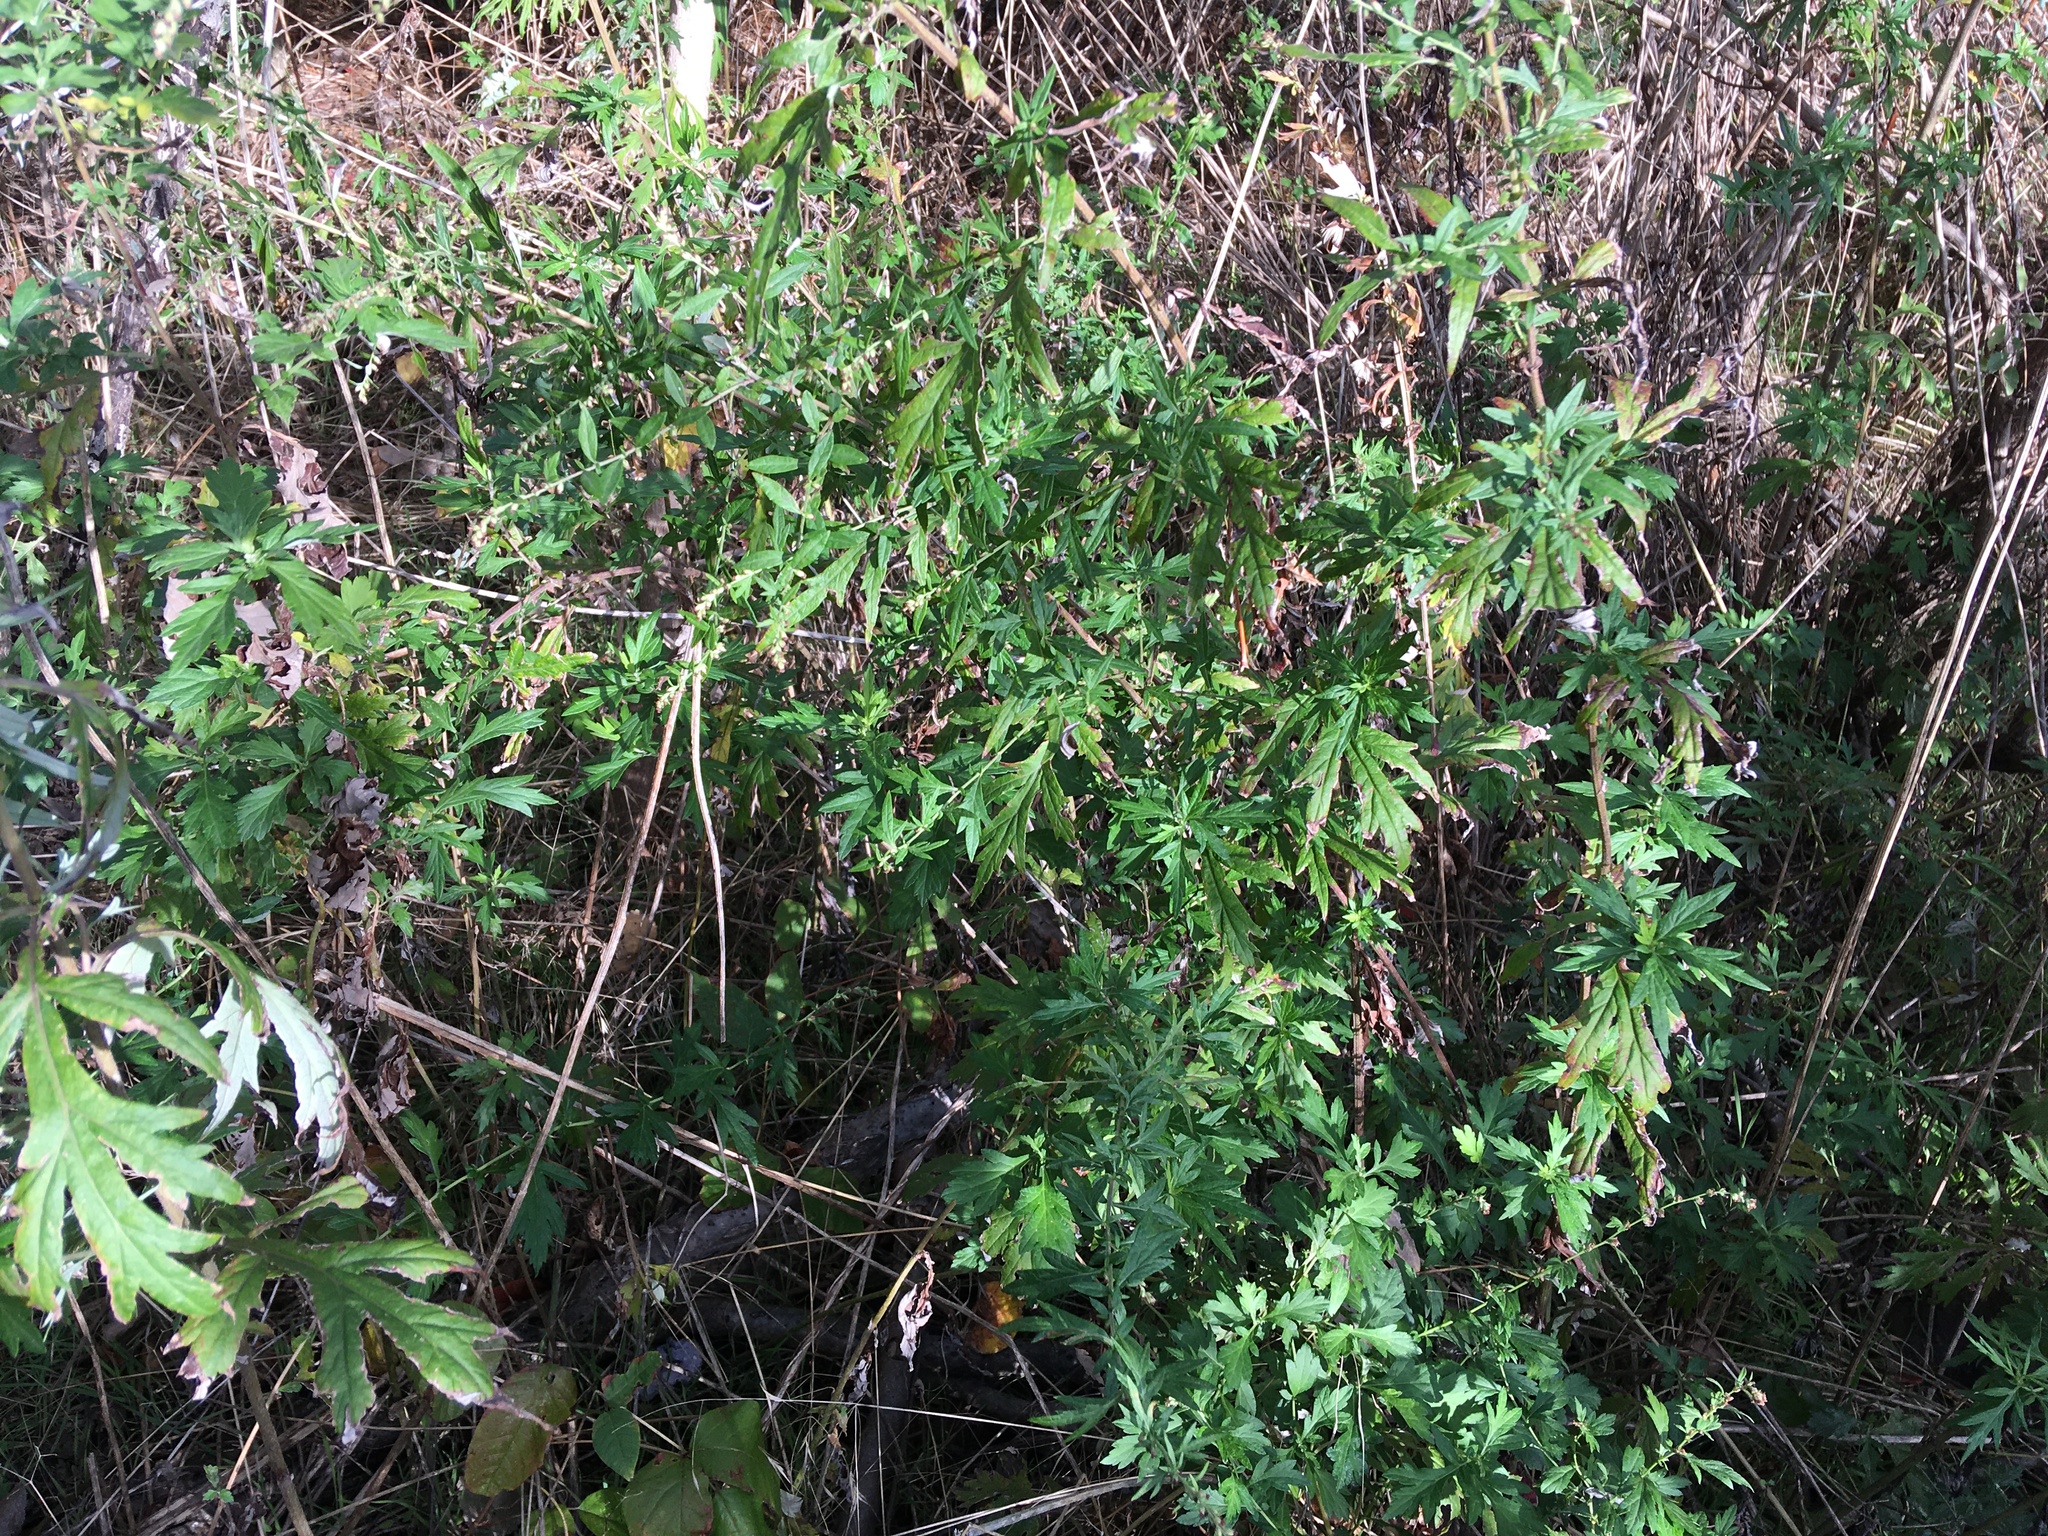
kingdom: Plantae
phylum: Tracheophyta
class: Magnoliopsida
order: Asterales
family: Asteraceae
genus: Artemisia
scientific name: Artemisia vulgaris
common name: Mugwort
